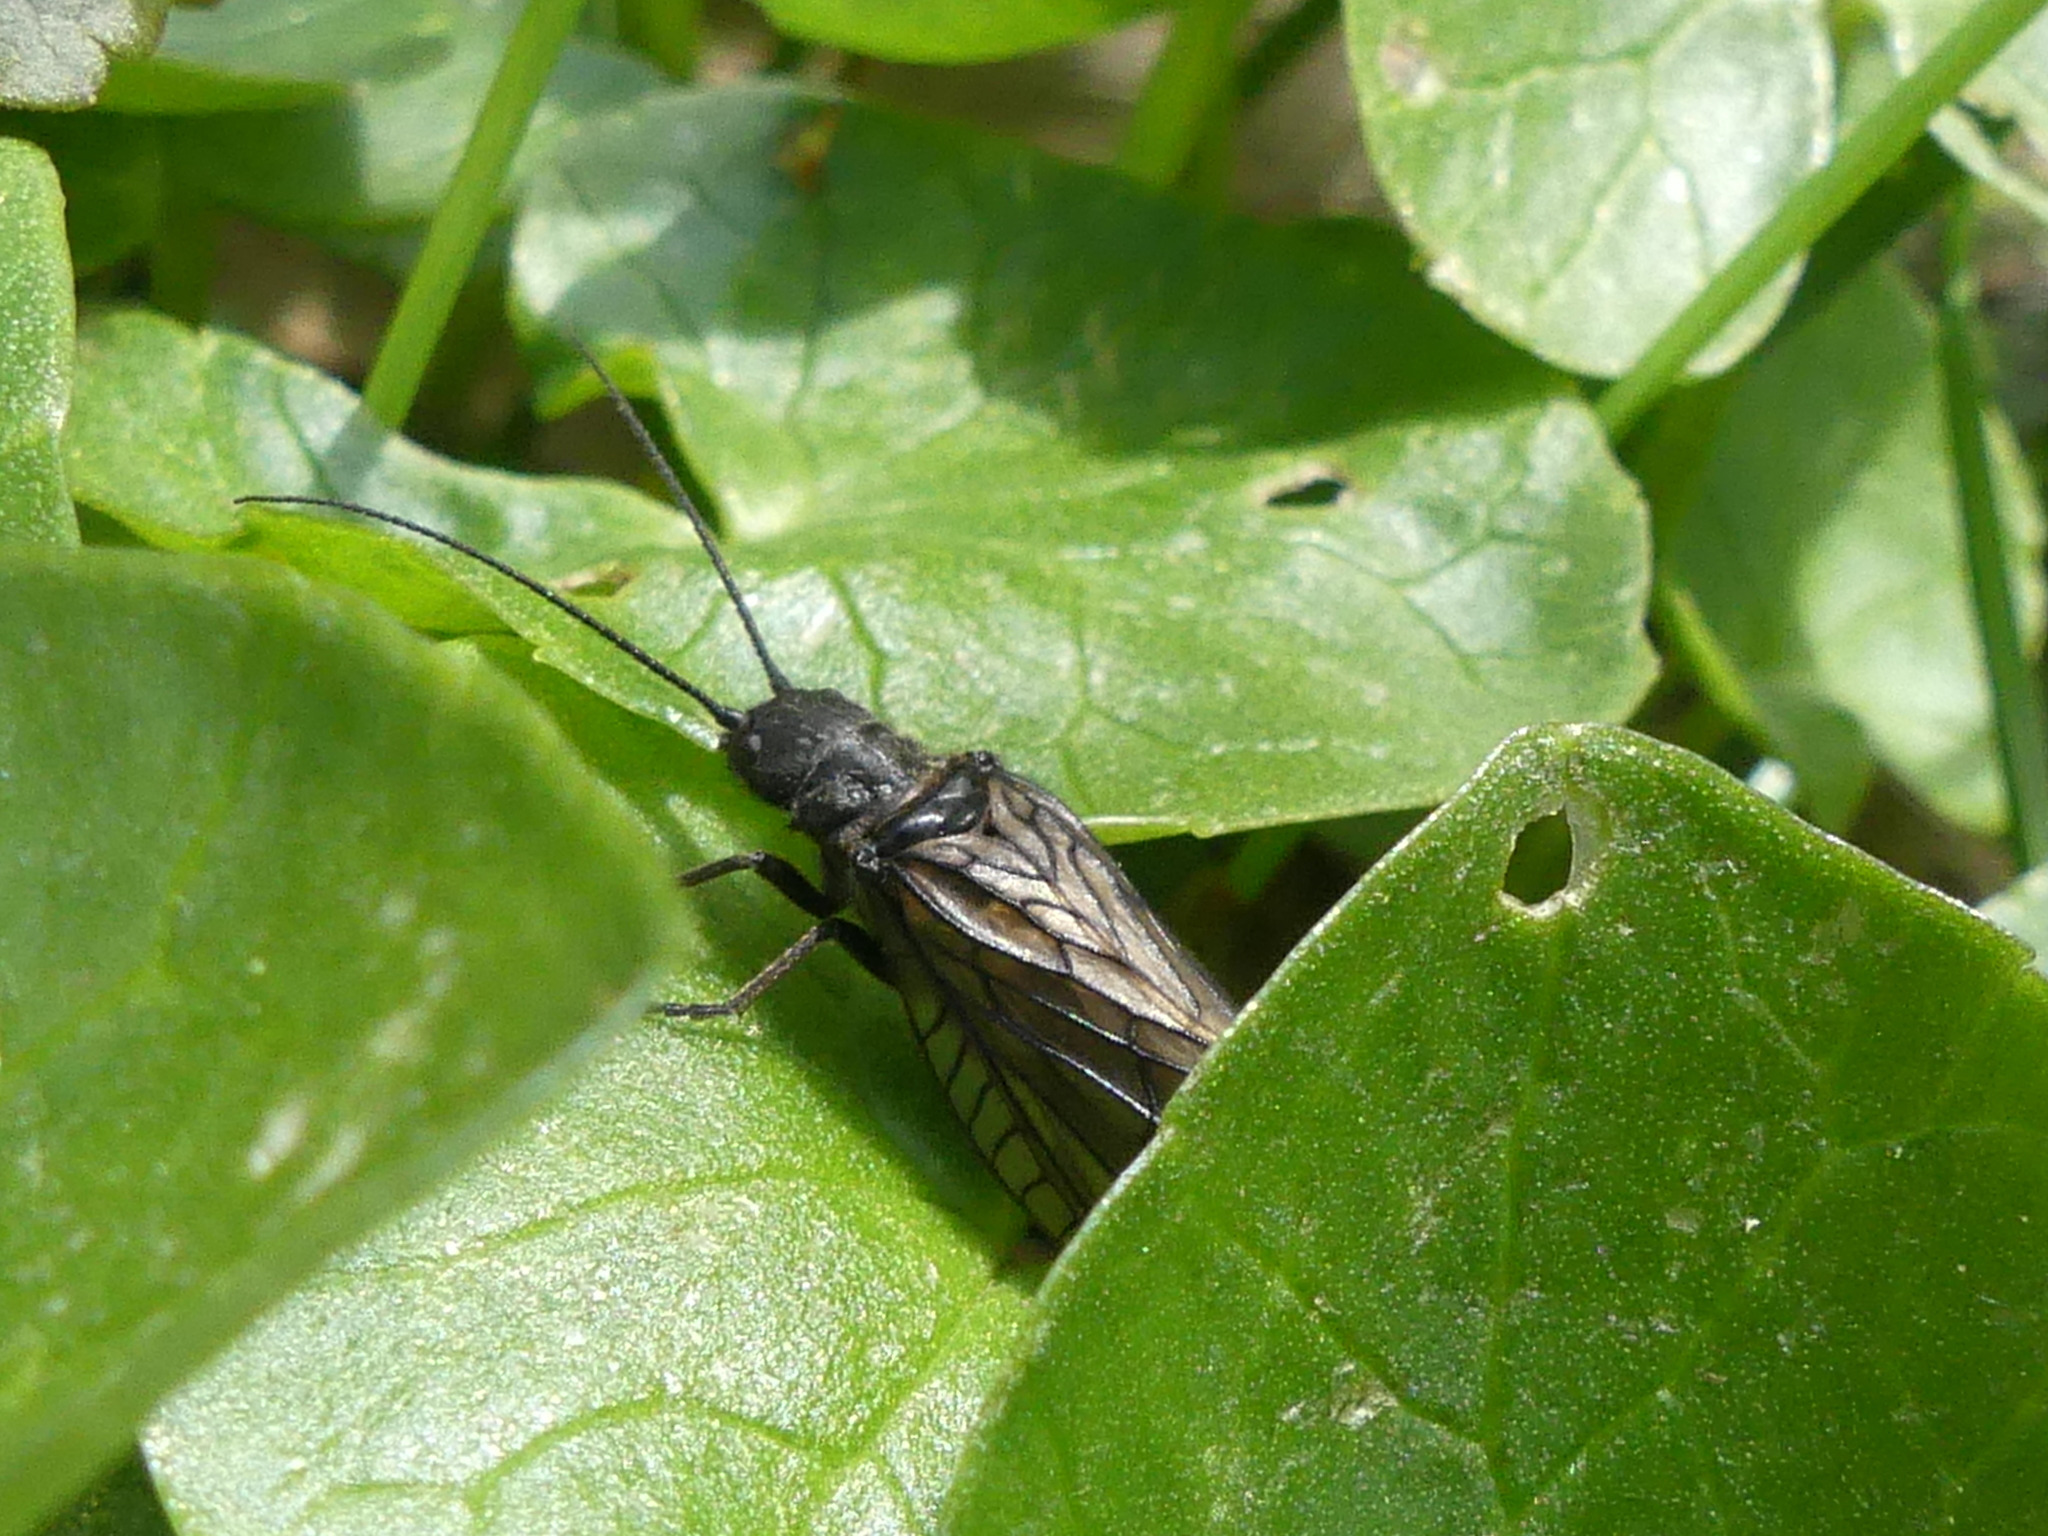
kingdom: Animalia
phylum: Arthropoda
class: Insecta
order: Megaloptera
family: Sialidae
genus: Sialis
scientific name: Sialis
